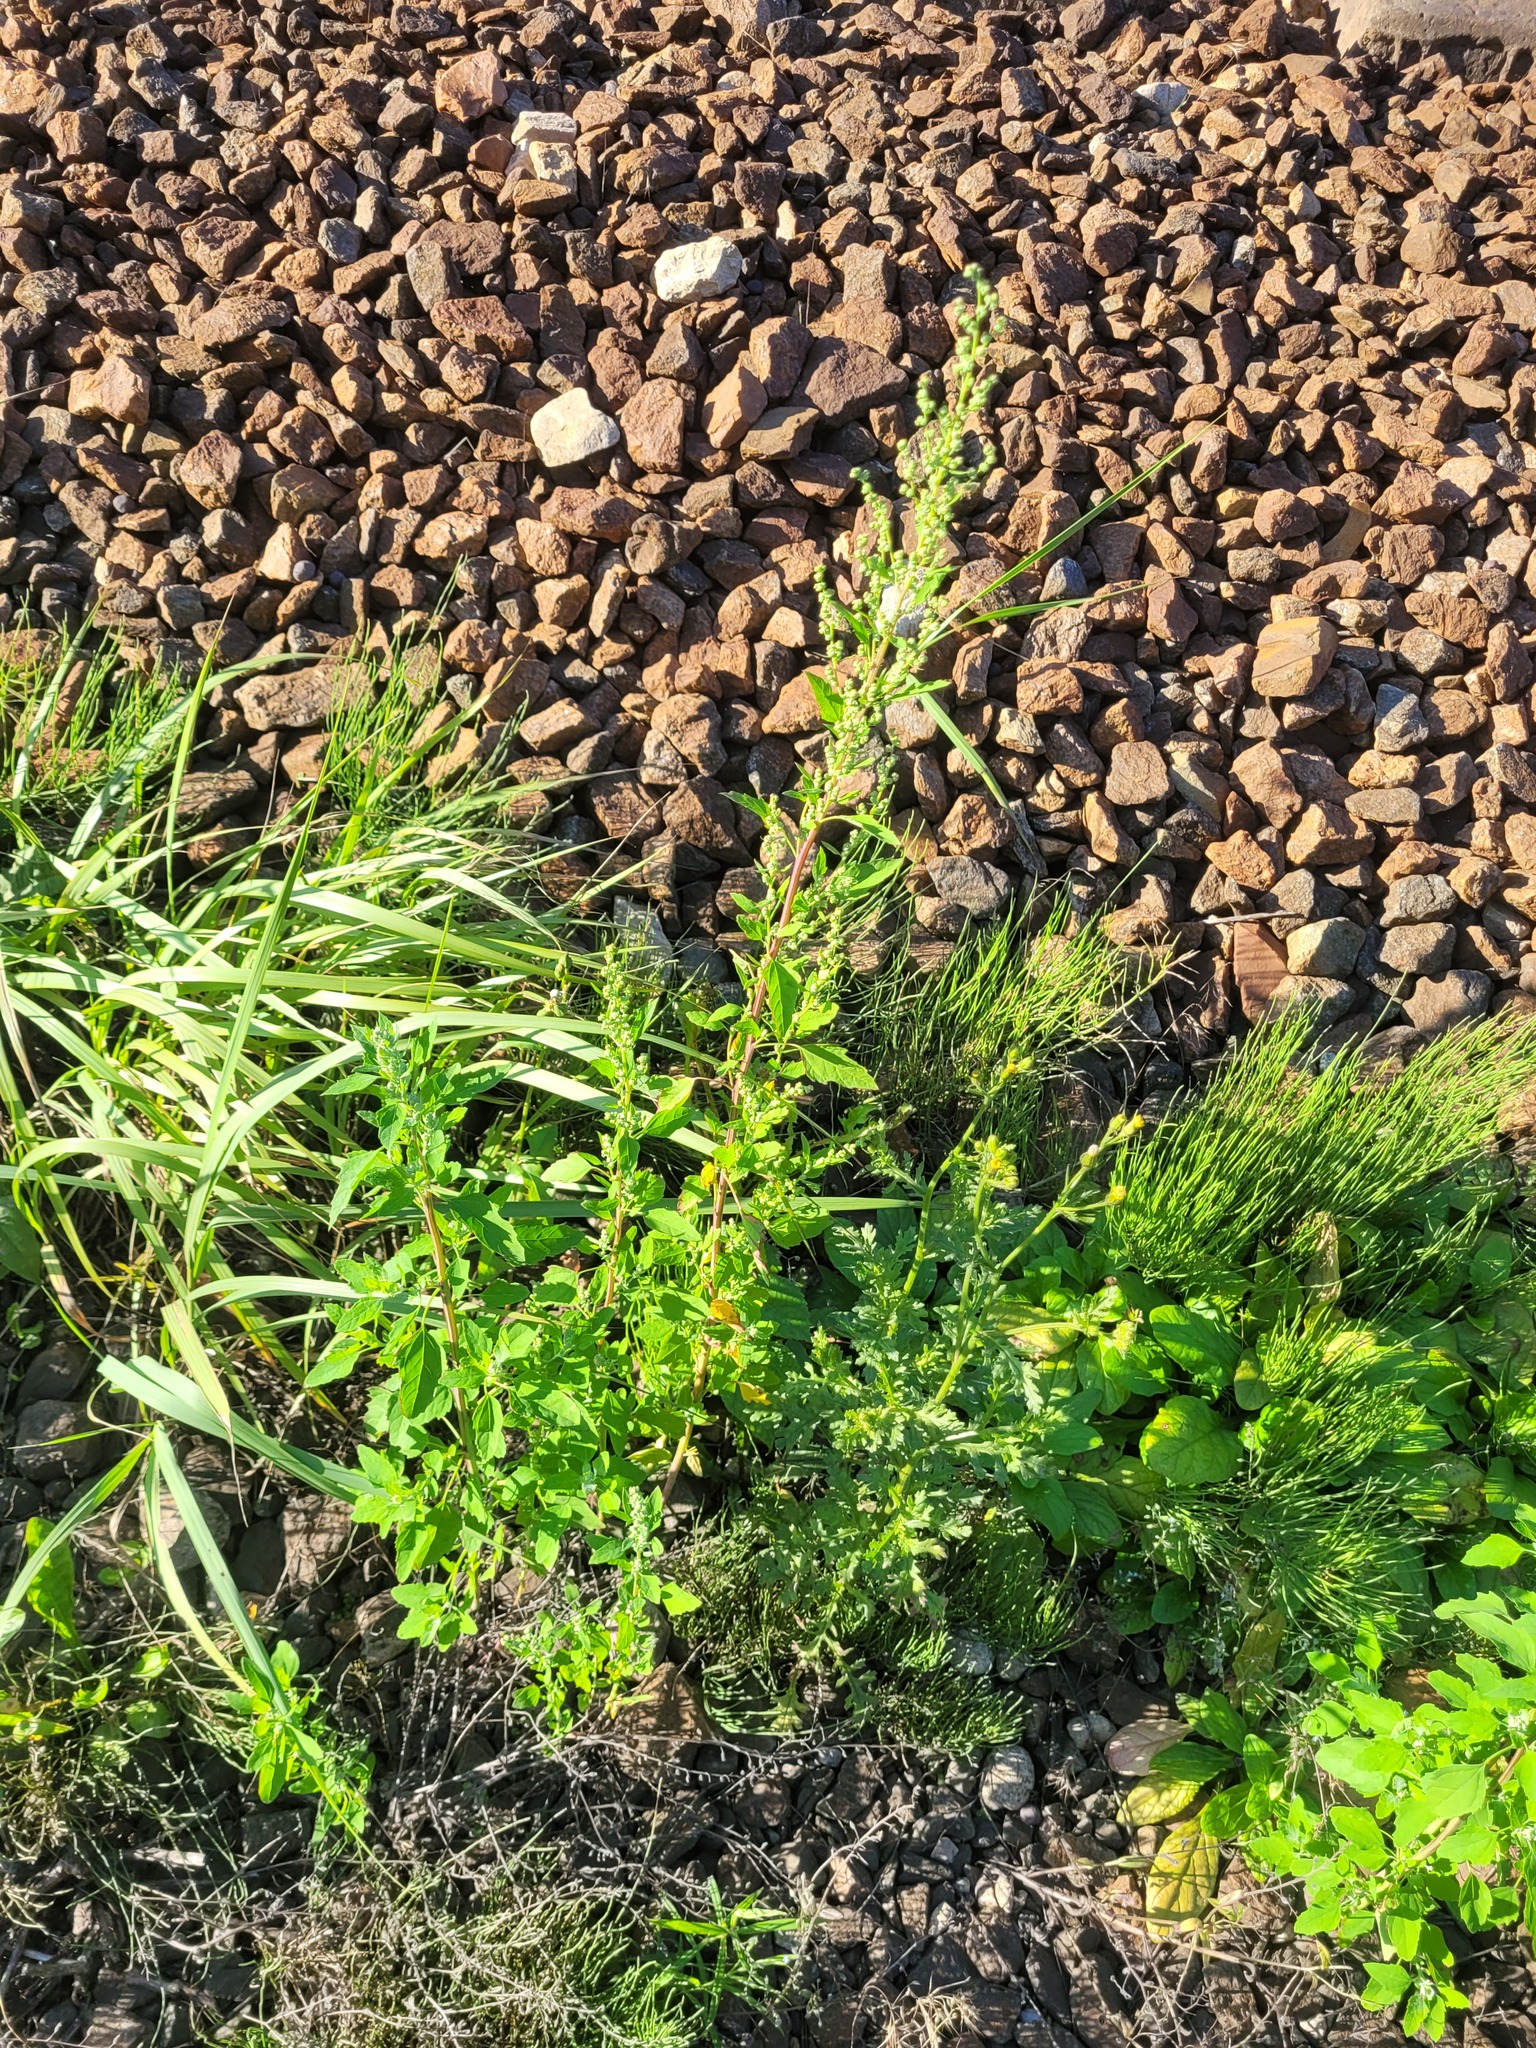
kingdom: Plantae
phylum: Tracheophyta
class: Magnoliopsida
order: Caryophyllales
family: Amaranthaceae
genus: Chenopodium
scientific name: Chenopodium album
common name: Fat-hen
